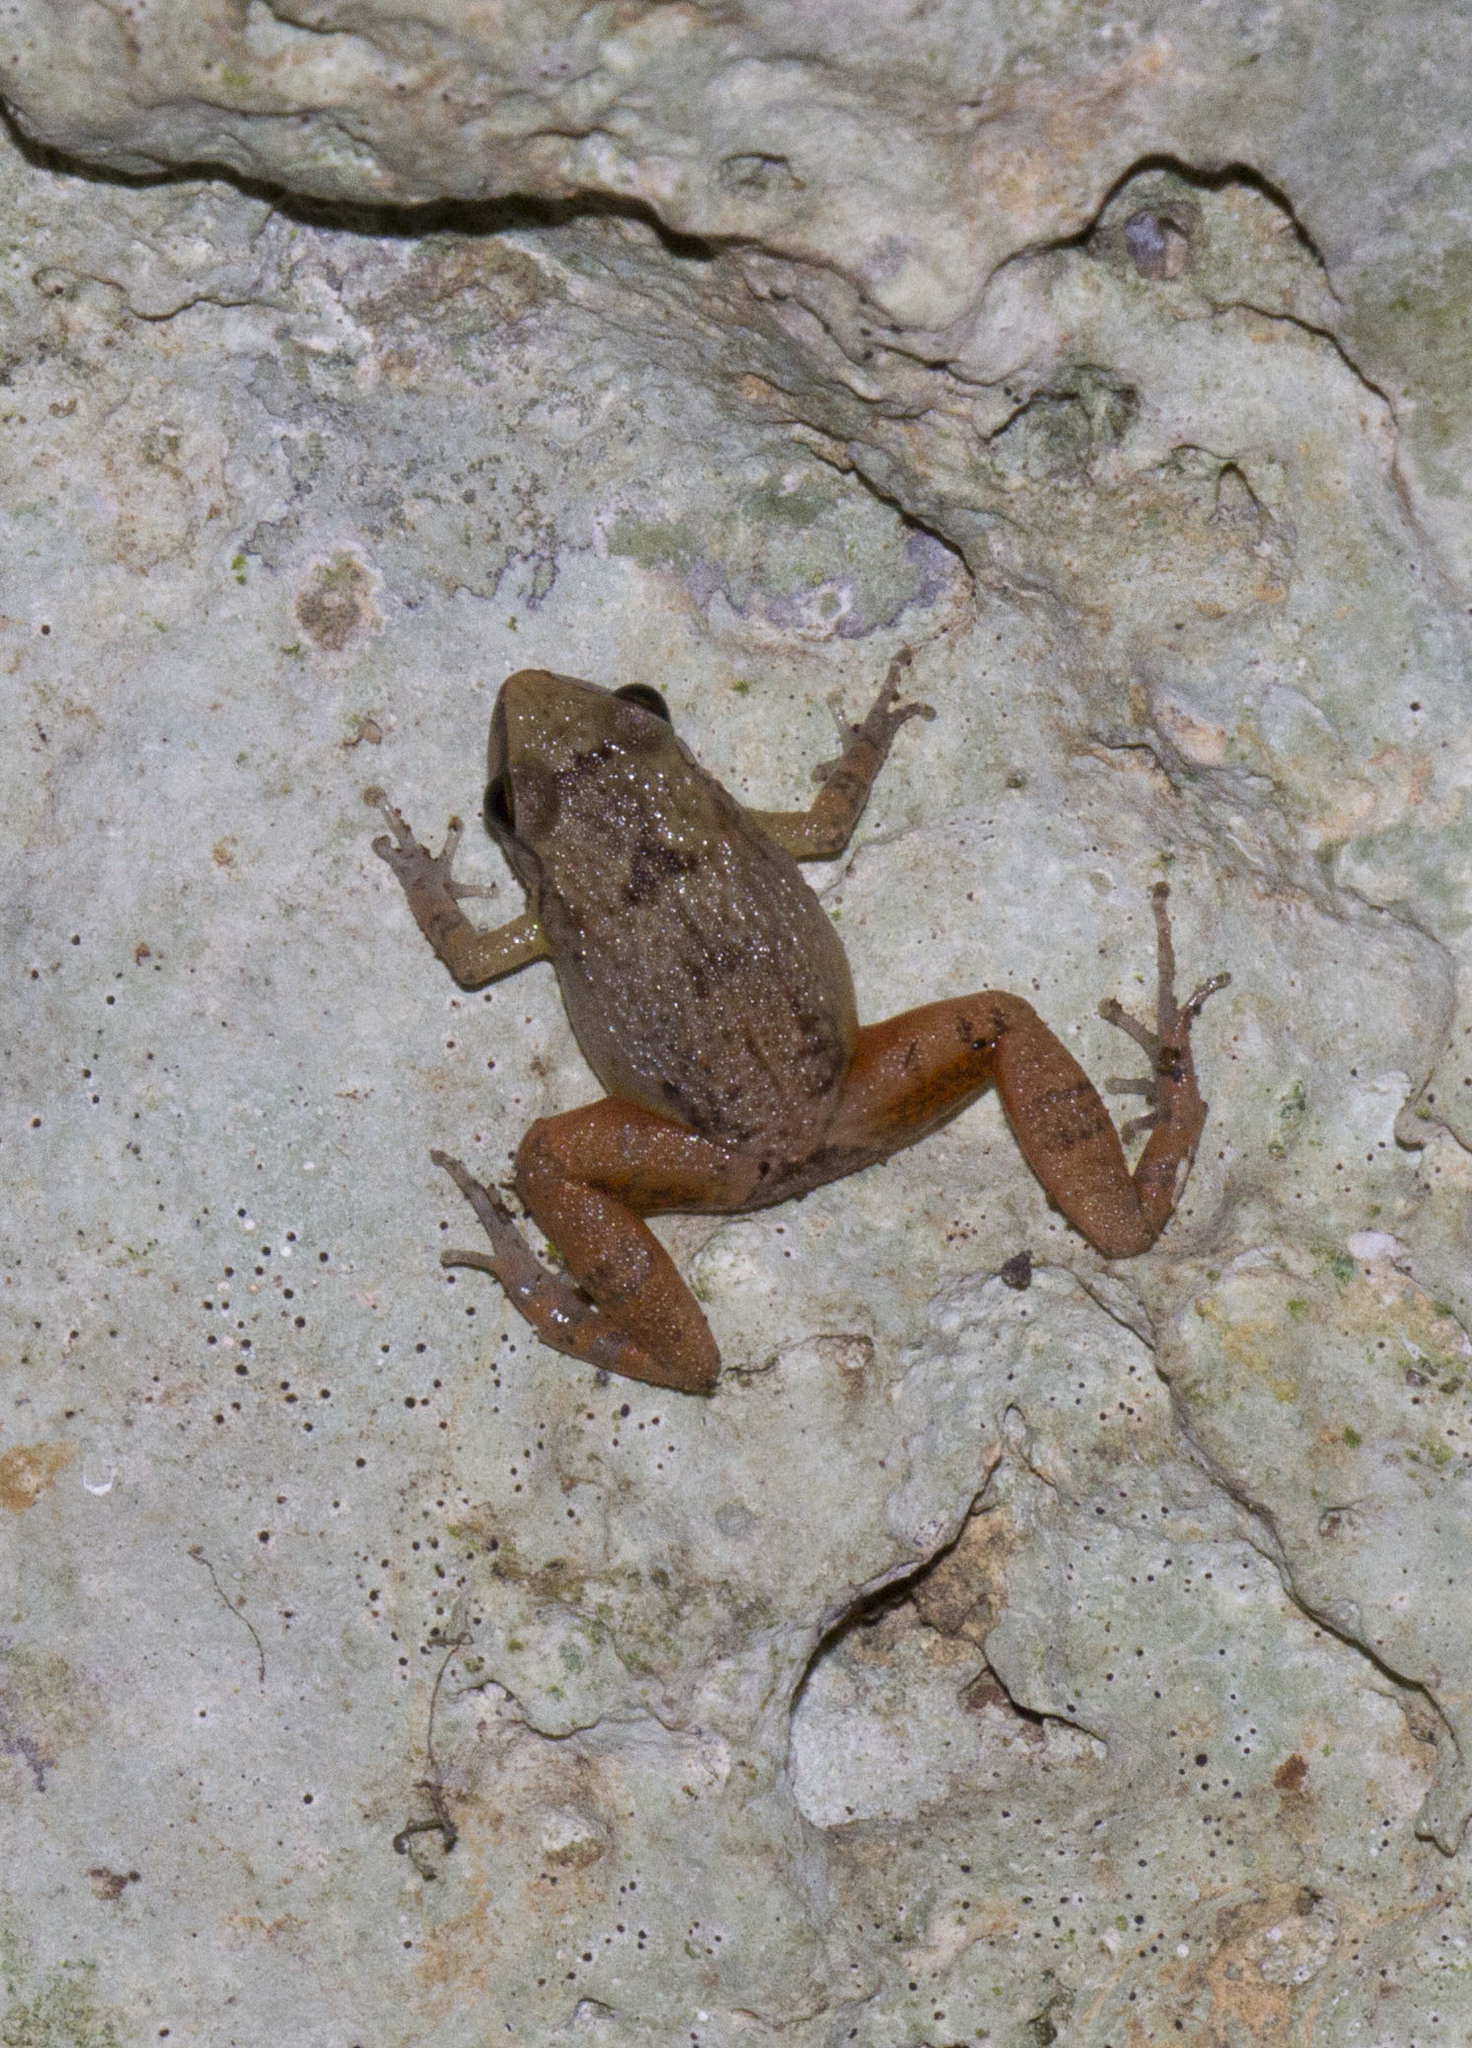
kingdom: Animalia
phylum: Chordata
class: Amphibia
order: Anura
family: Eleutherodactylidae
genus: Eleutherodactylus
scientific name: Eleutherodactylus zugi
